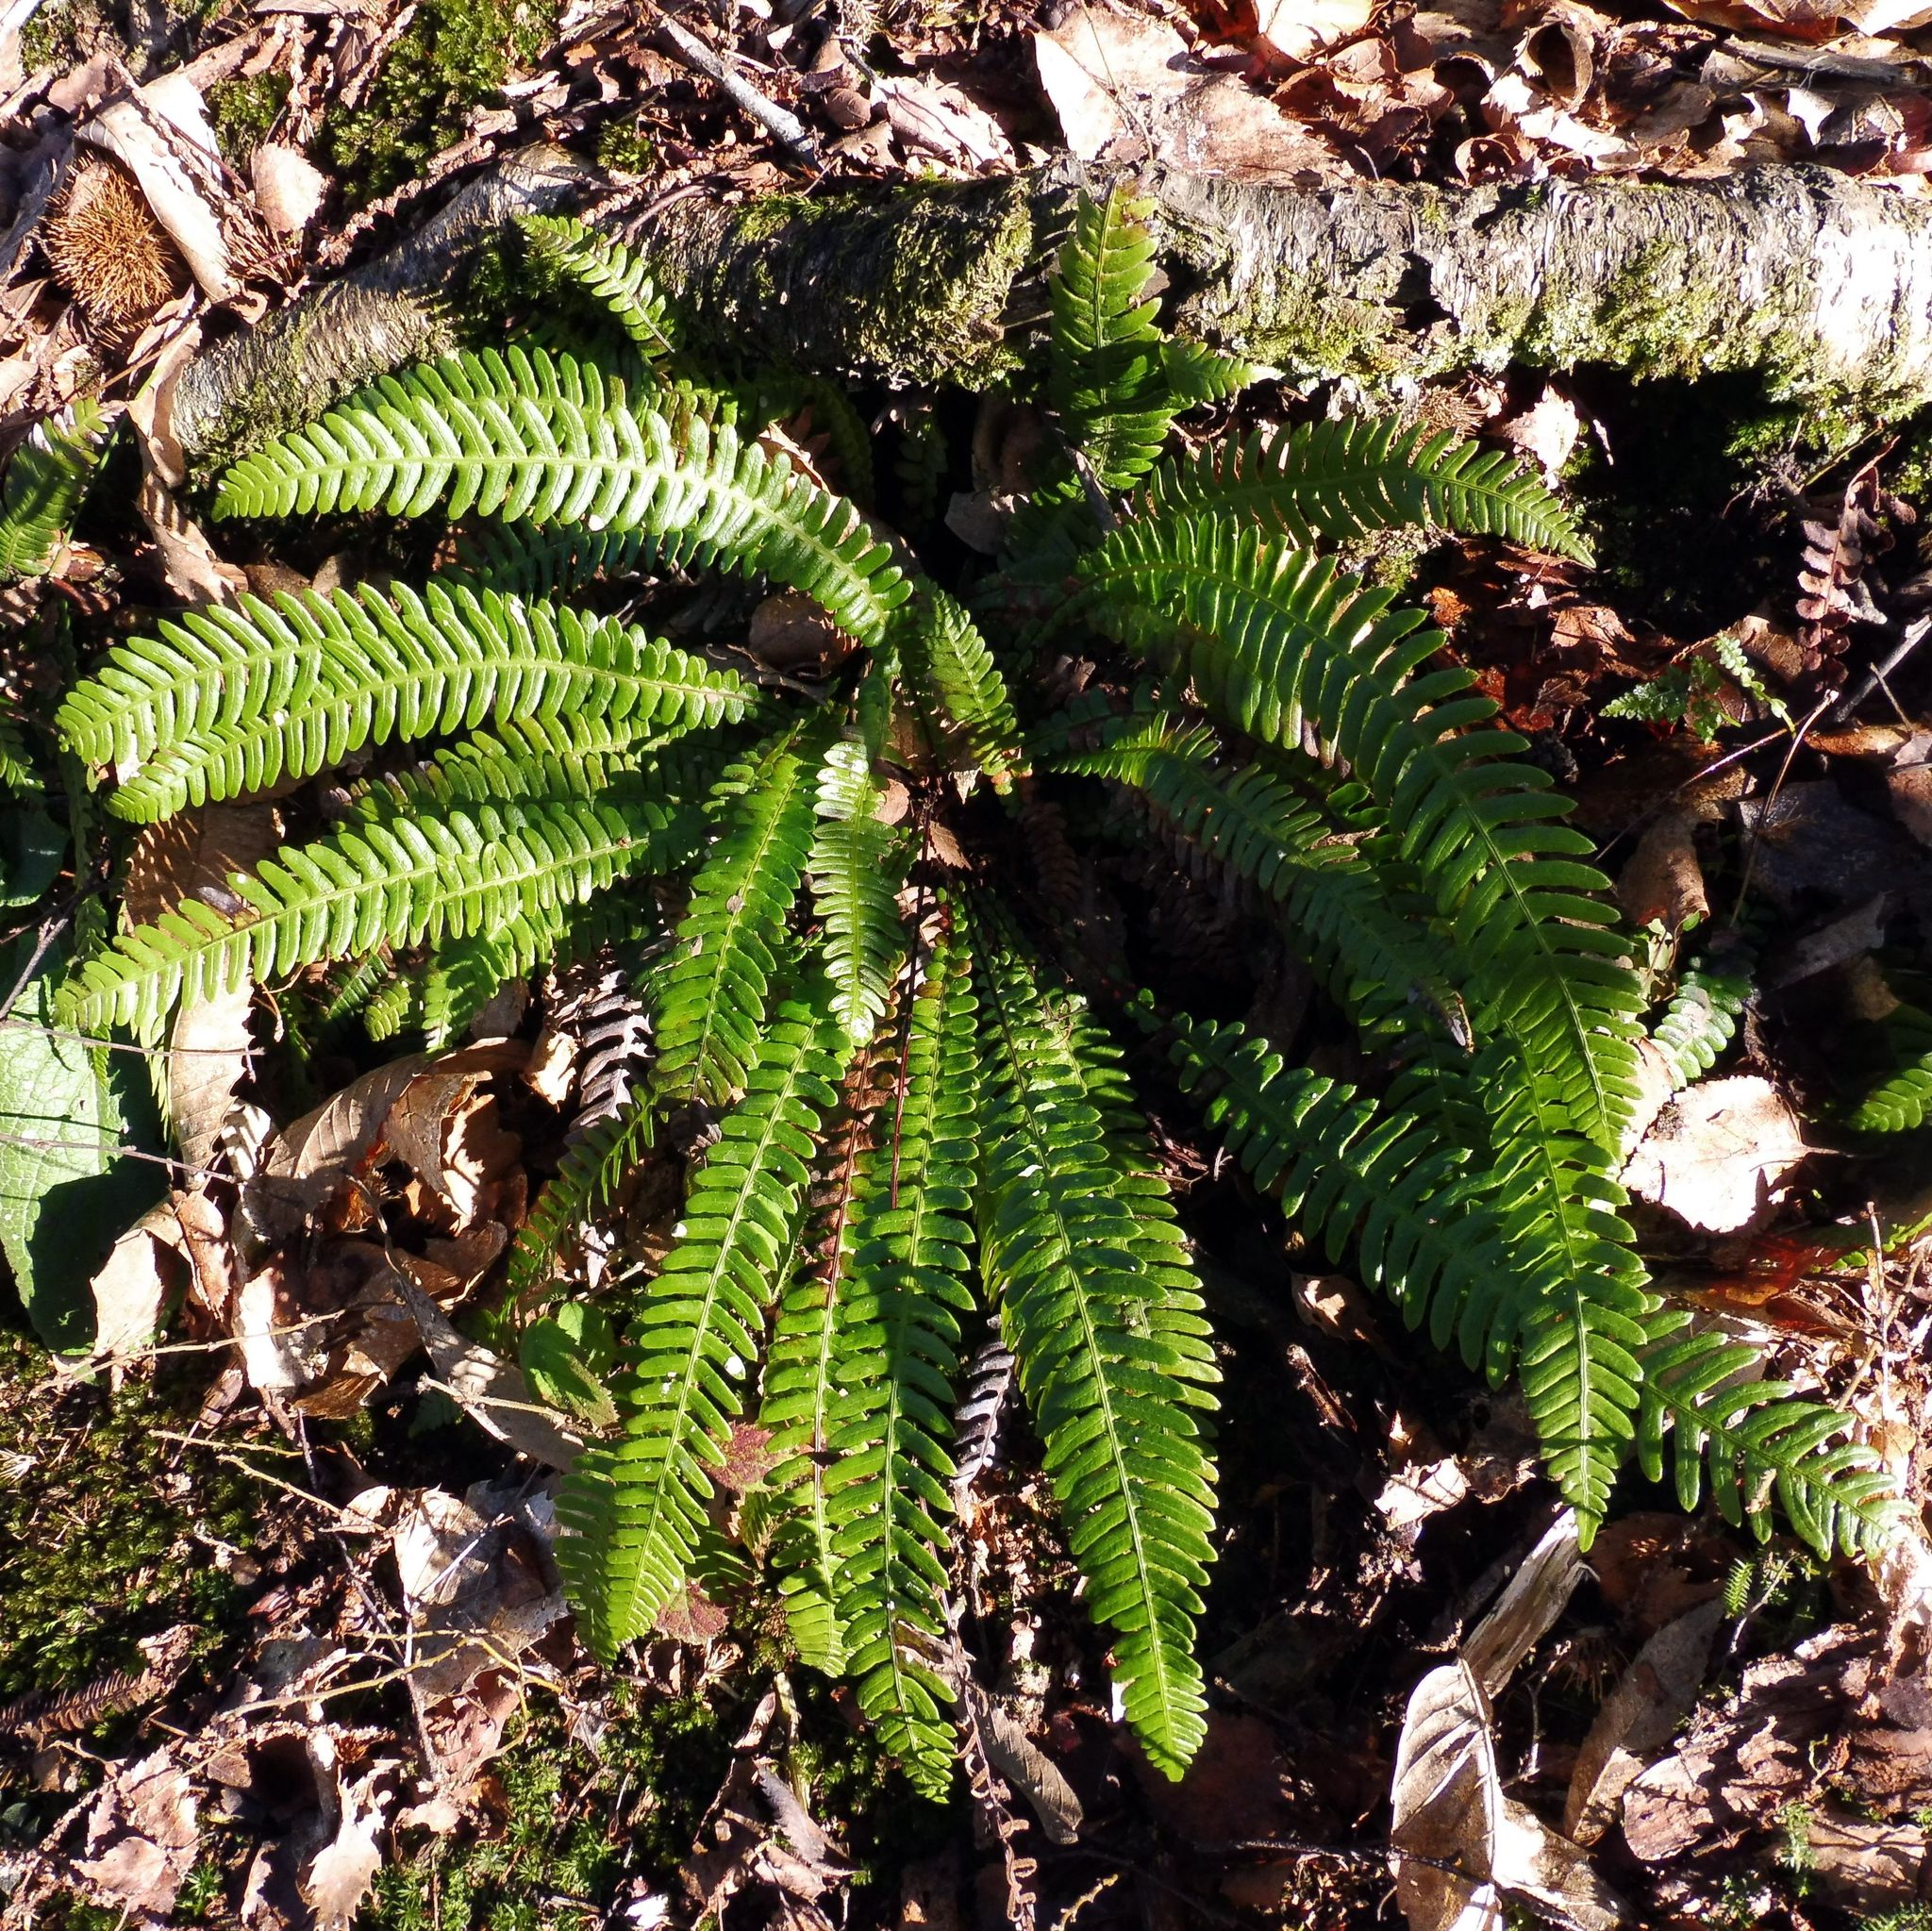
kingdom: Plantae
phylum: Tracheophyta
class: Polypodiopsida
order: Polypodiales
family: Blechnaceae
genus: Struthiopteris
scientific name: Struthiopteris spicant
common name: Deer fern
